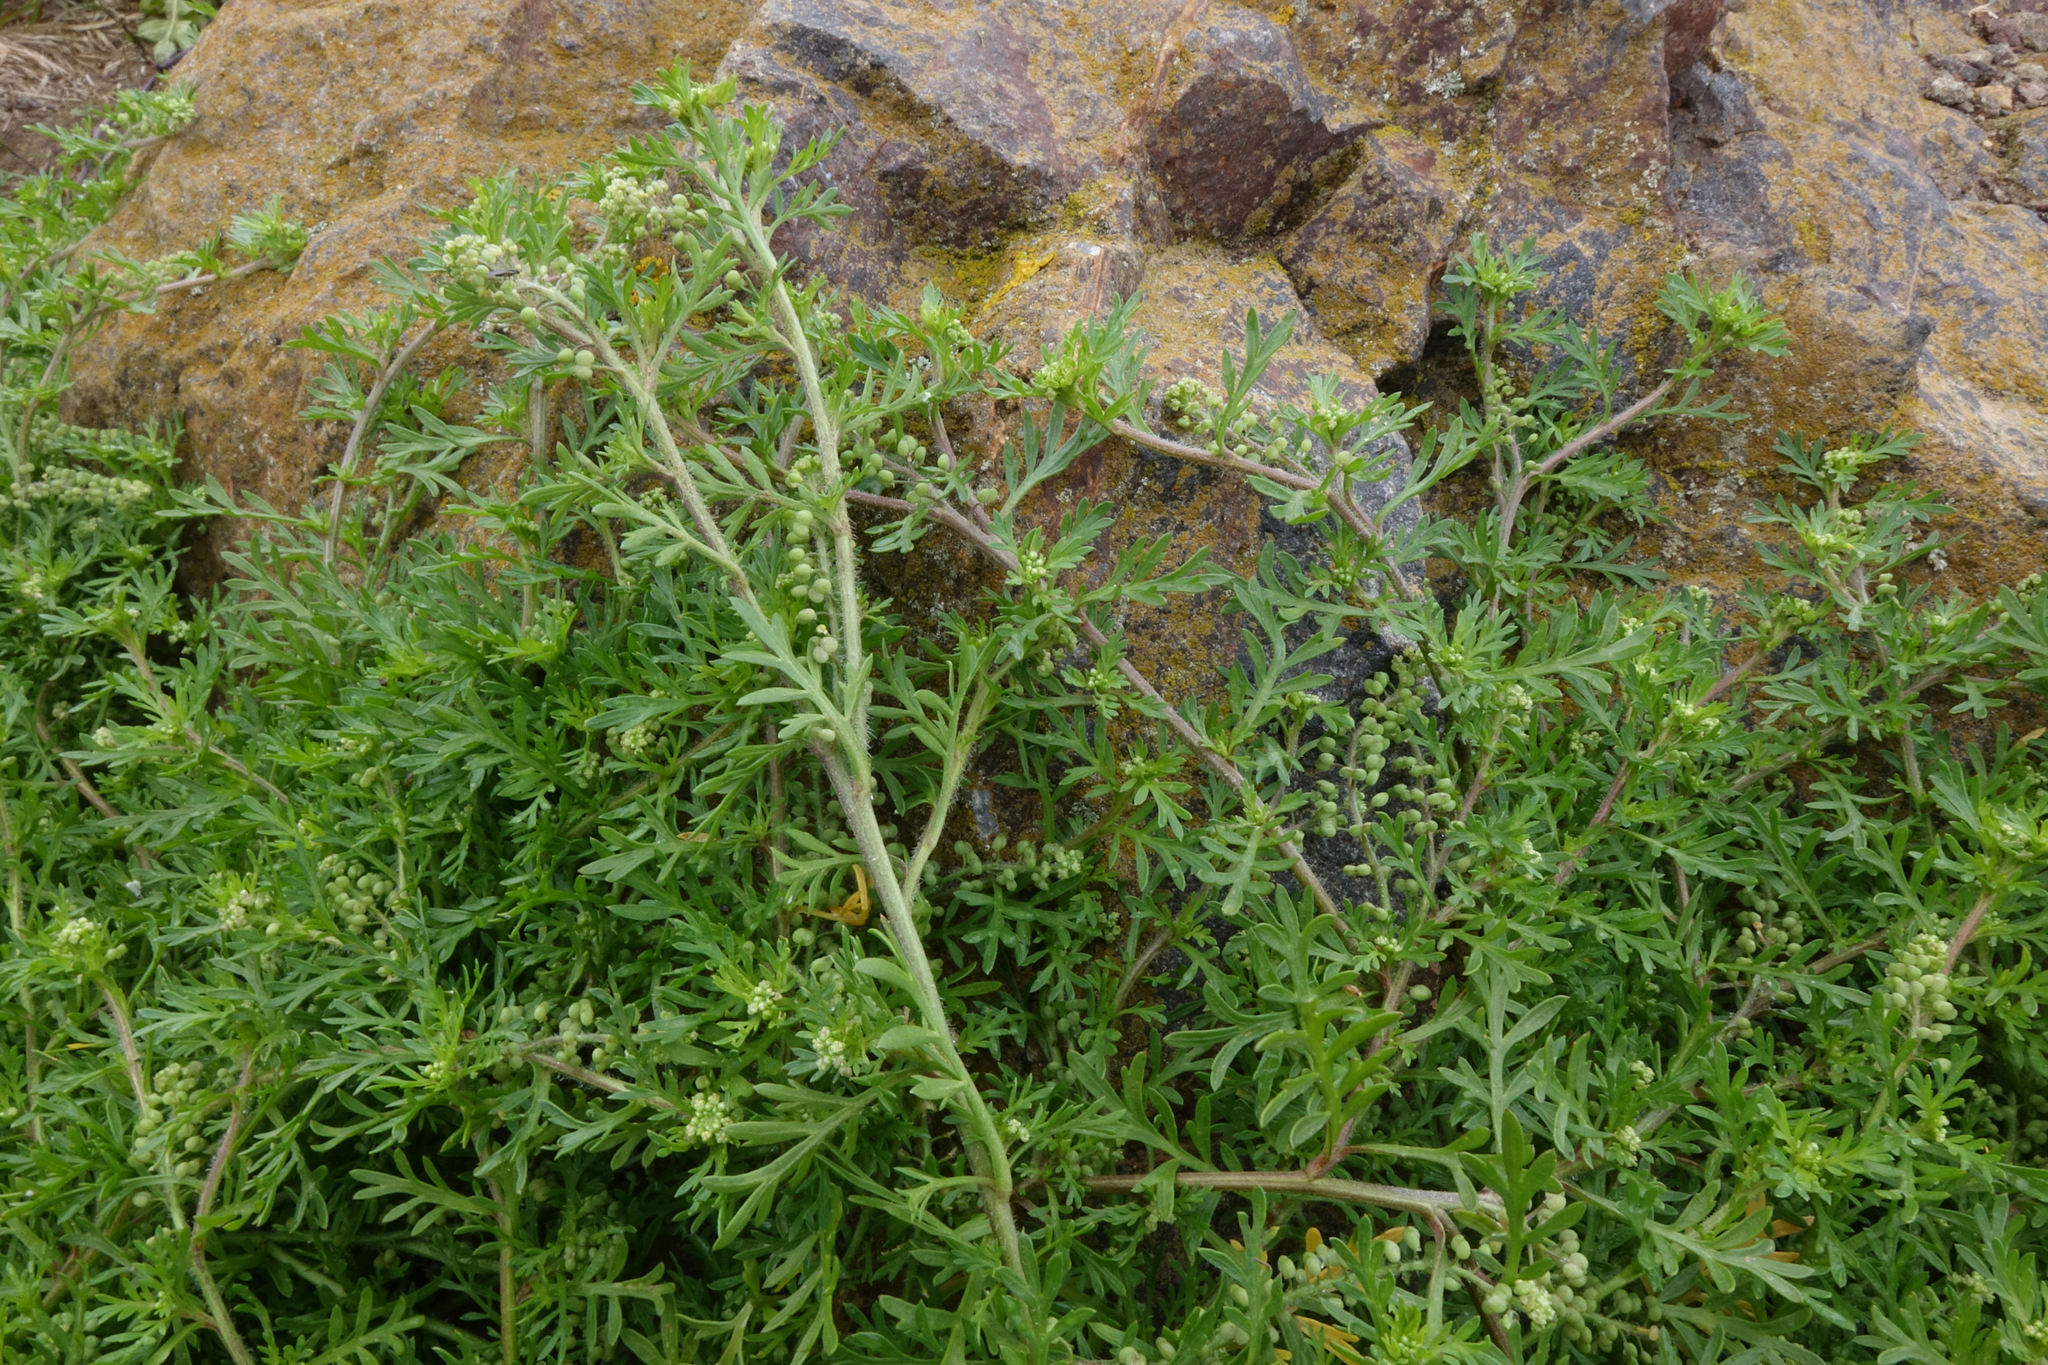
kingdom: Plantae
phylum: Tracheophyta
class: Magnoliopsida
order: Brassicales
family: Brassicaceae
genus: Lepidium
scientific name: Lepidium didymum
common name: Lesser swinecress
